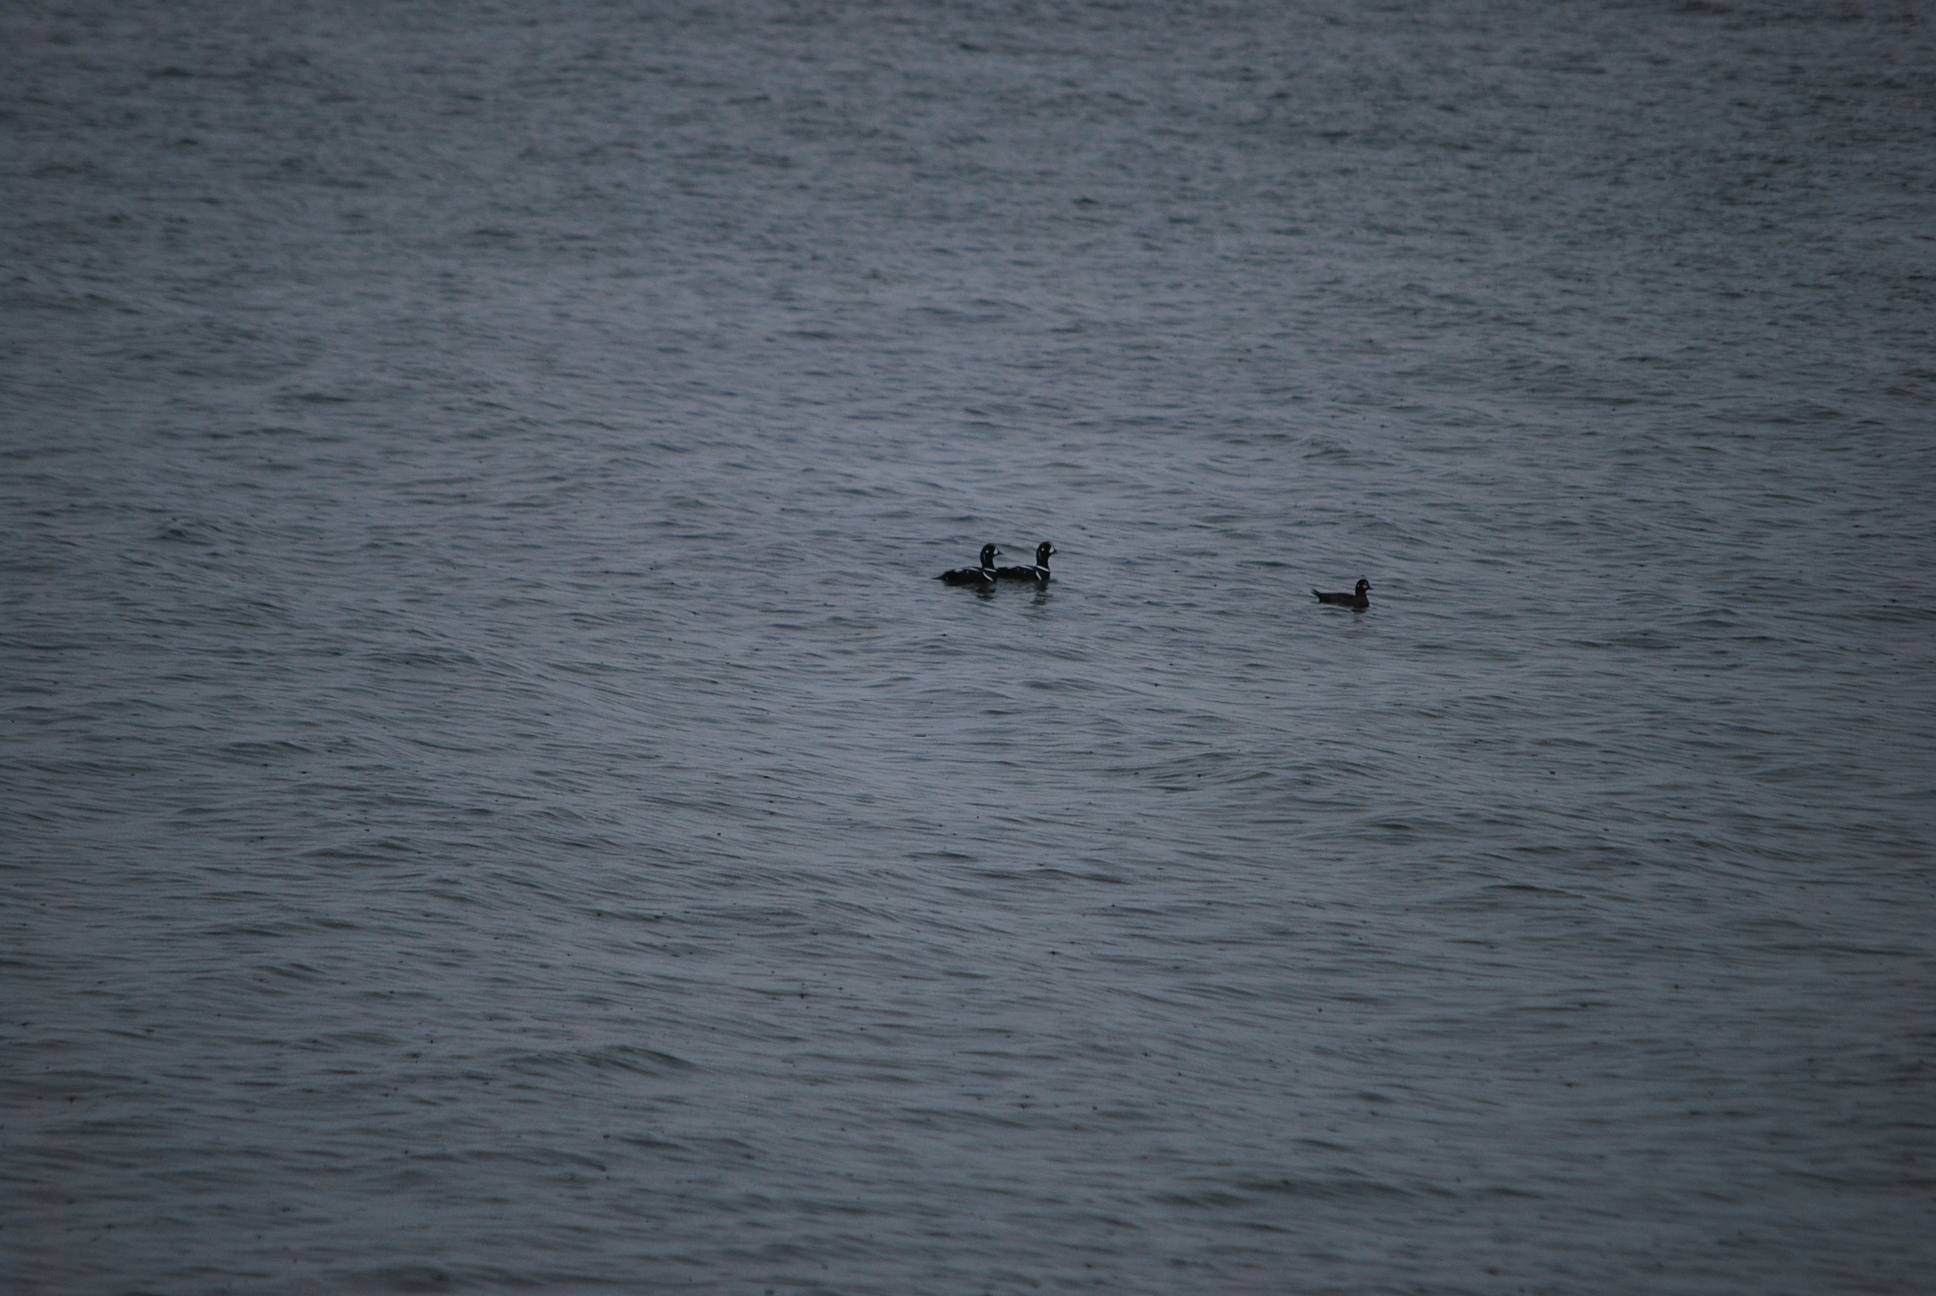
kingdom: Animalia
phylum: Chordata
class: Aves
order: Anseriformes
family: Anatidae
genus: Histrionicus
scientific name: Histrionicus histrionicus
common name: Harlequin duck
